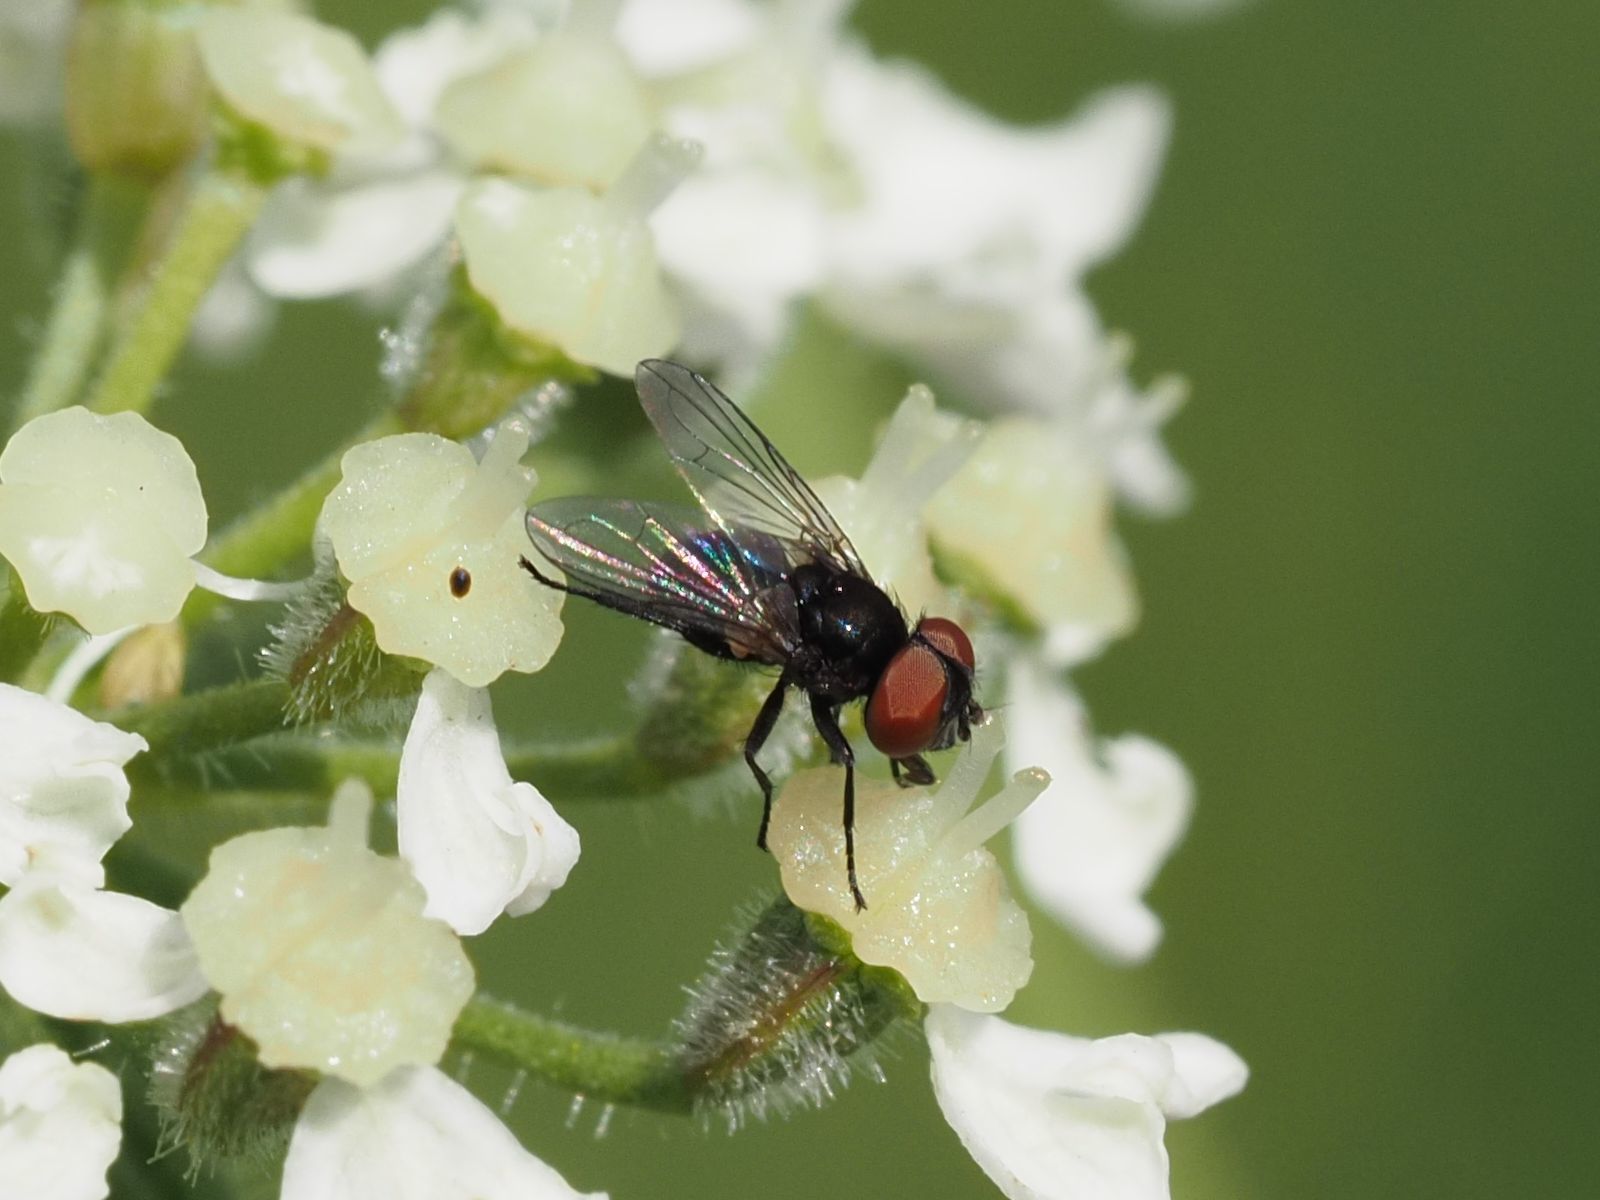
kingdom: Animalia
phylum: Arthropoda
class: Insecta
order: Diptera
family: Tachinidae
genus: Phasia
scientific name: Phasia barbifrons
